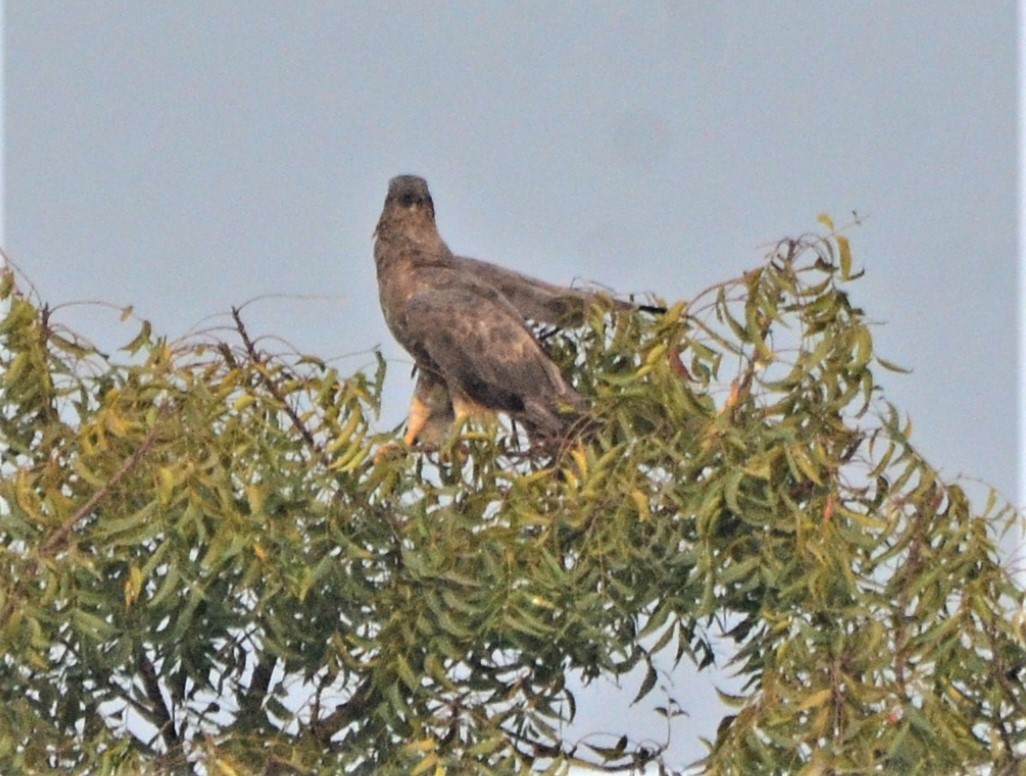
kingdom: Animalia
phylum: Chordata
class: Aves
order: Accipitriformes
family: Accipitridae
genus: Pernis
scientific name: Pernis ptilorhynchus
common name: Crested honey buzzard
